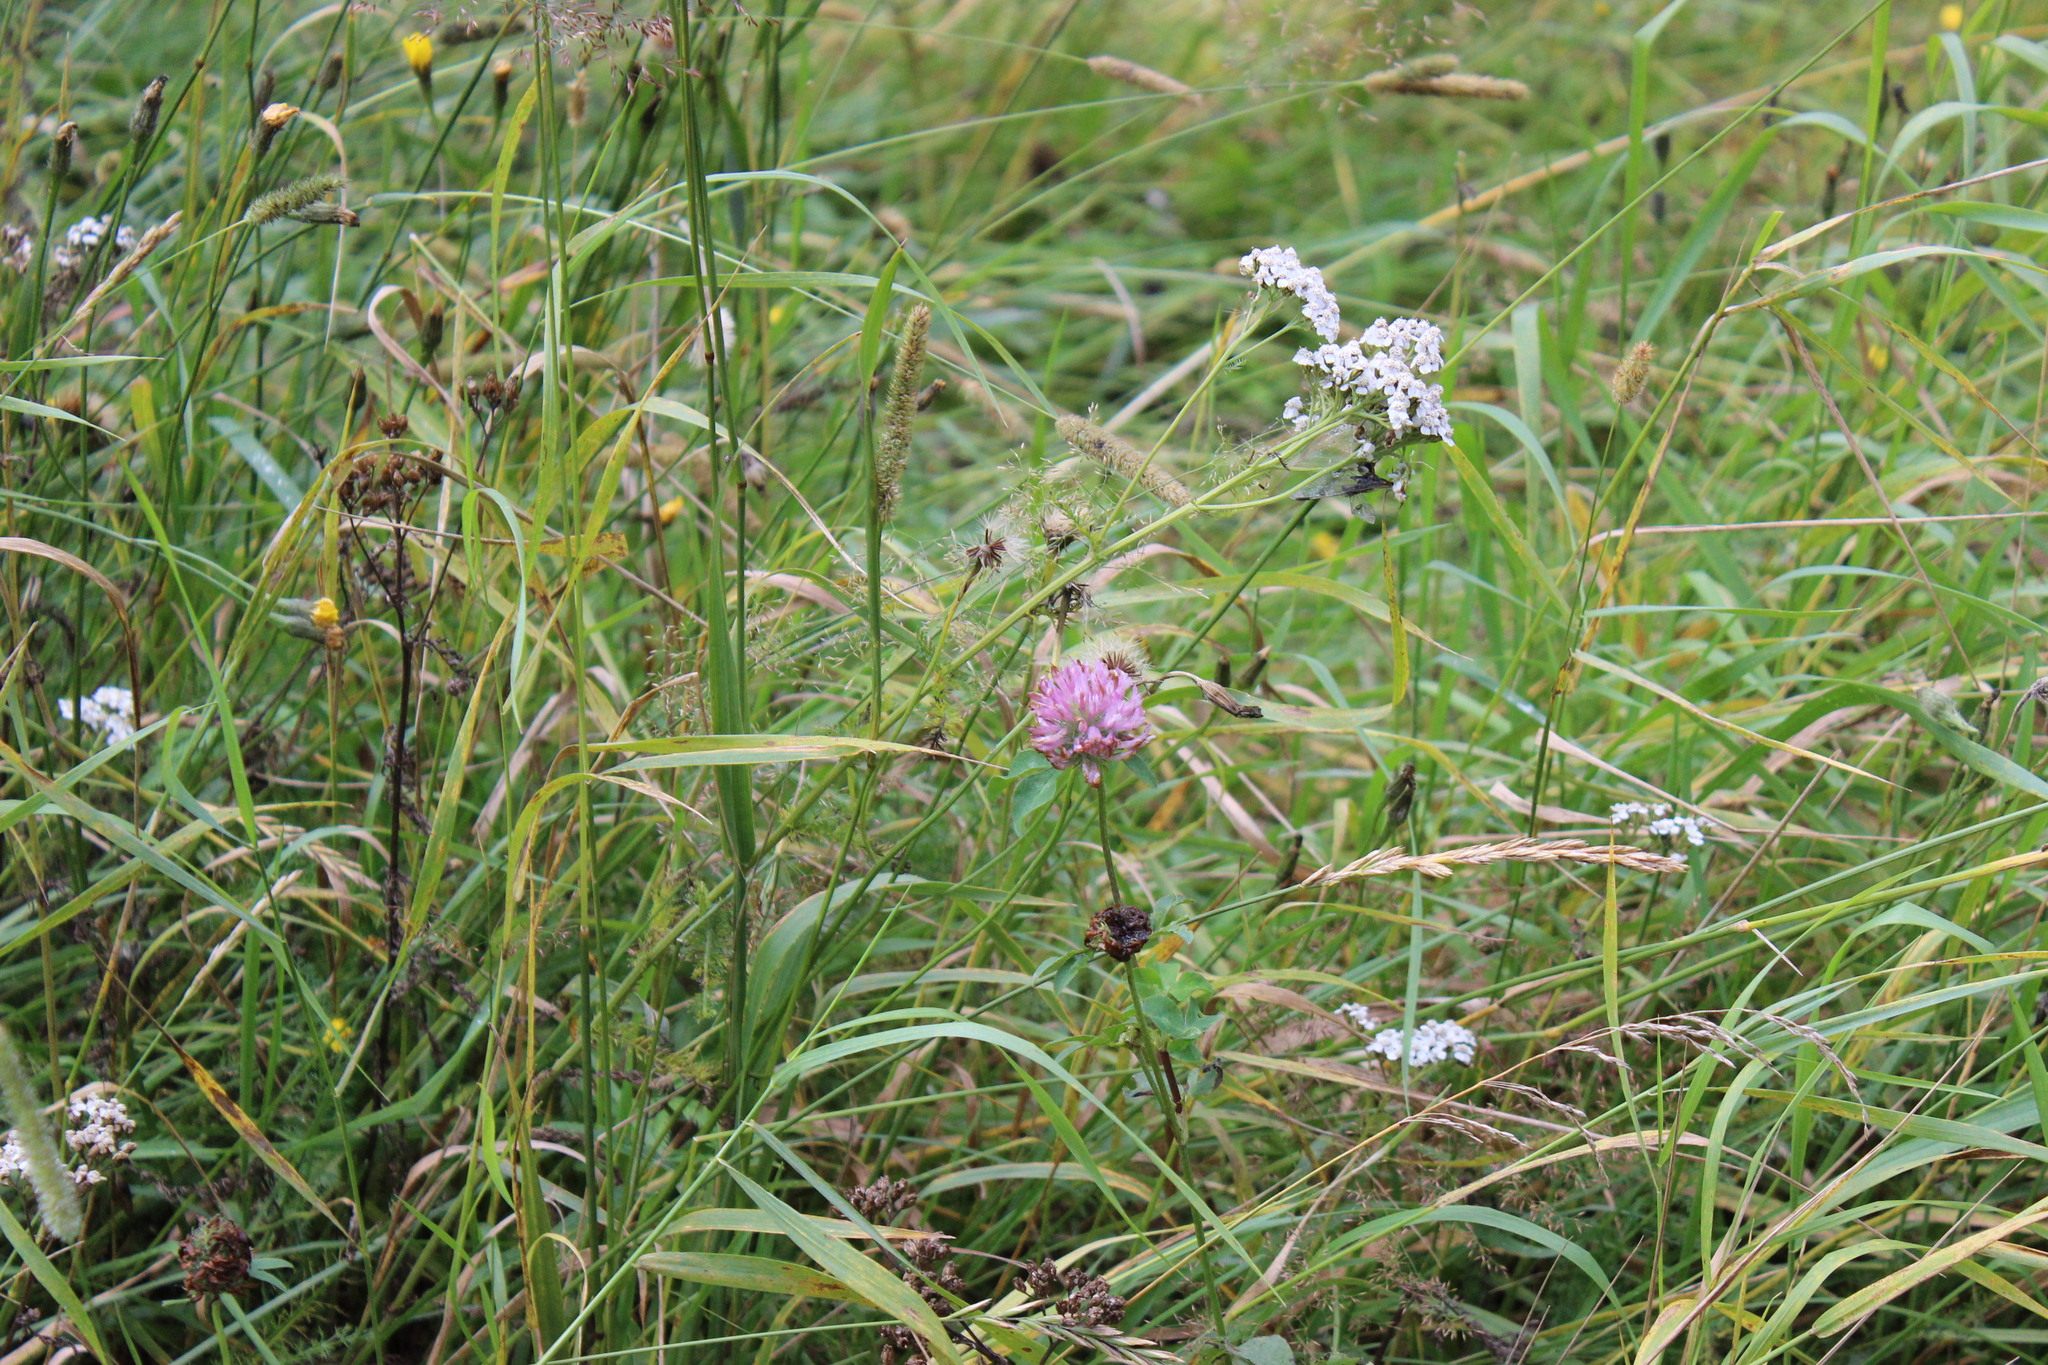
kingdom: Plantae
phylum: Tracheophyta
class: Magnoliopsida
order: Fabales
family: Fabaceae
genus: Trifolium
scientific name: Trifolium pratense
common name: Red clover
